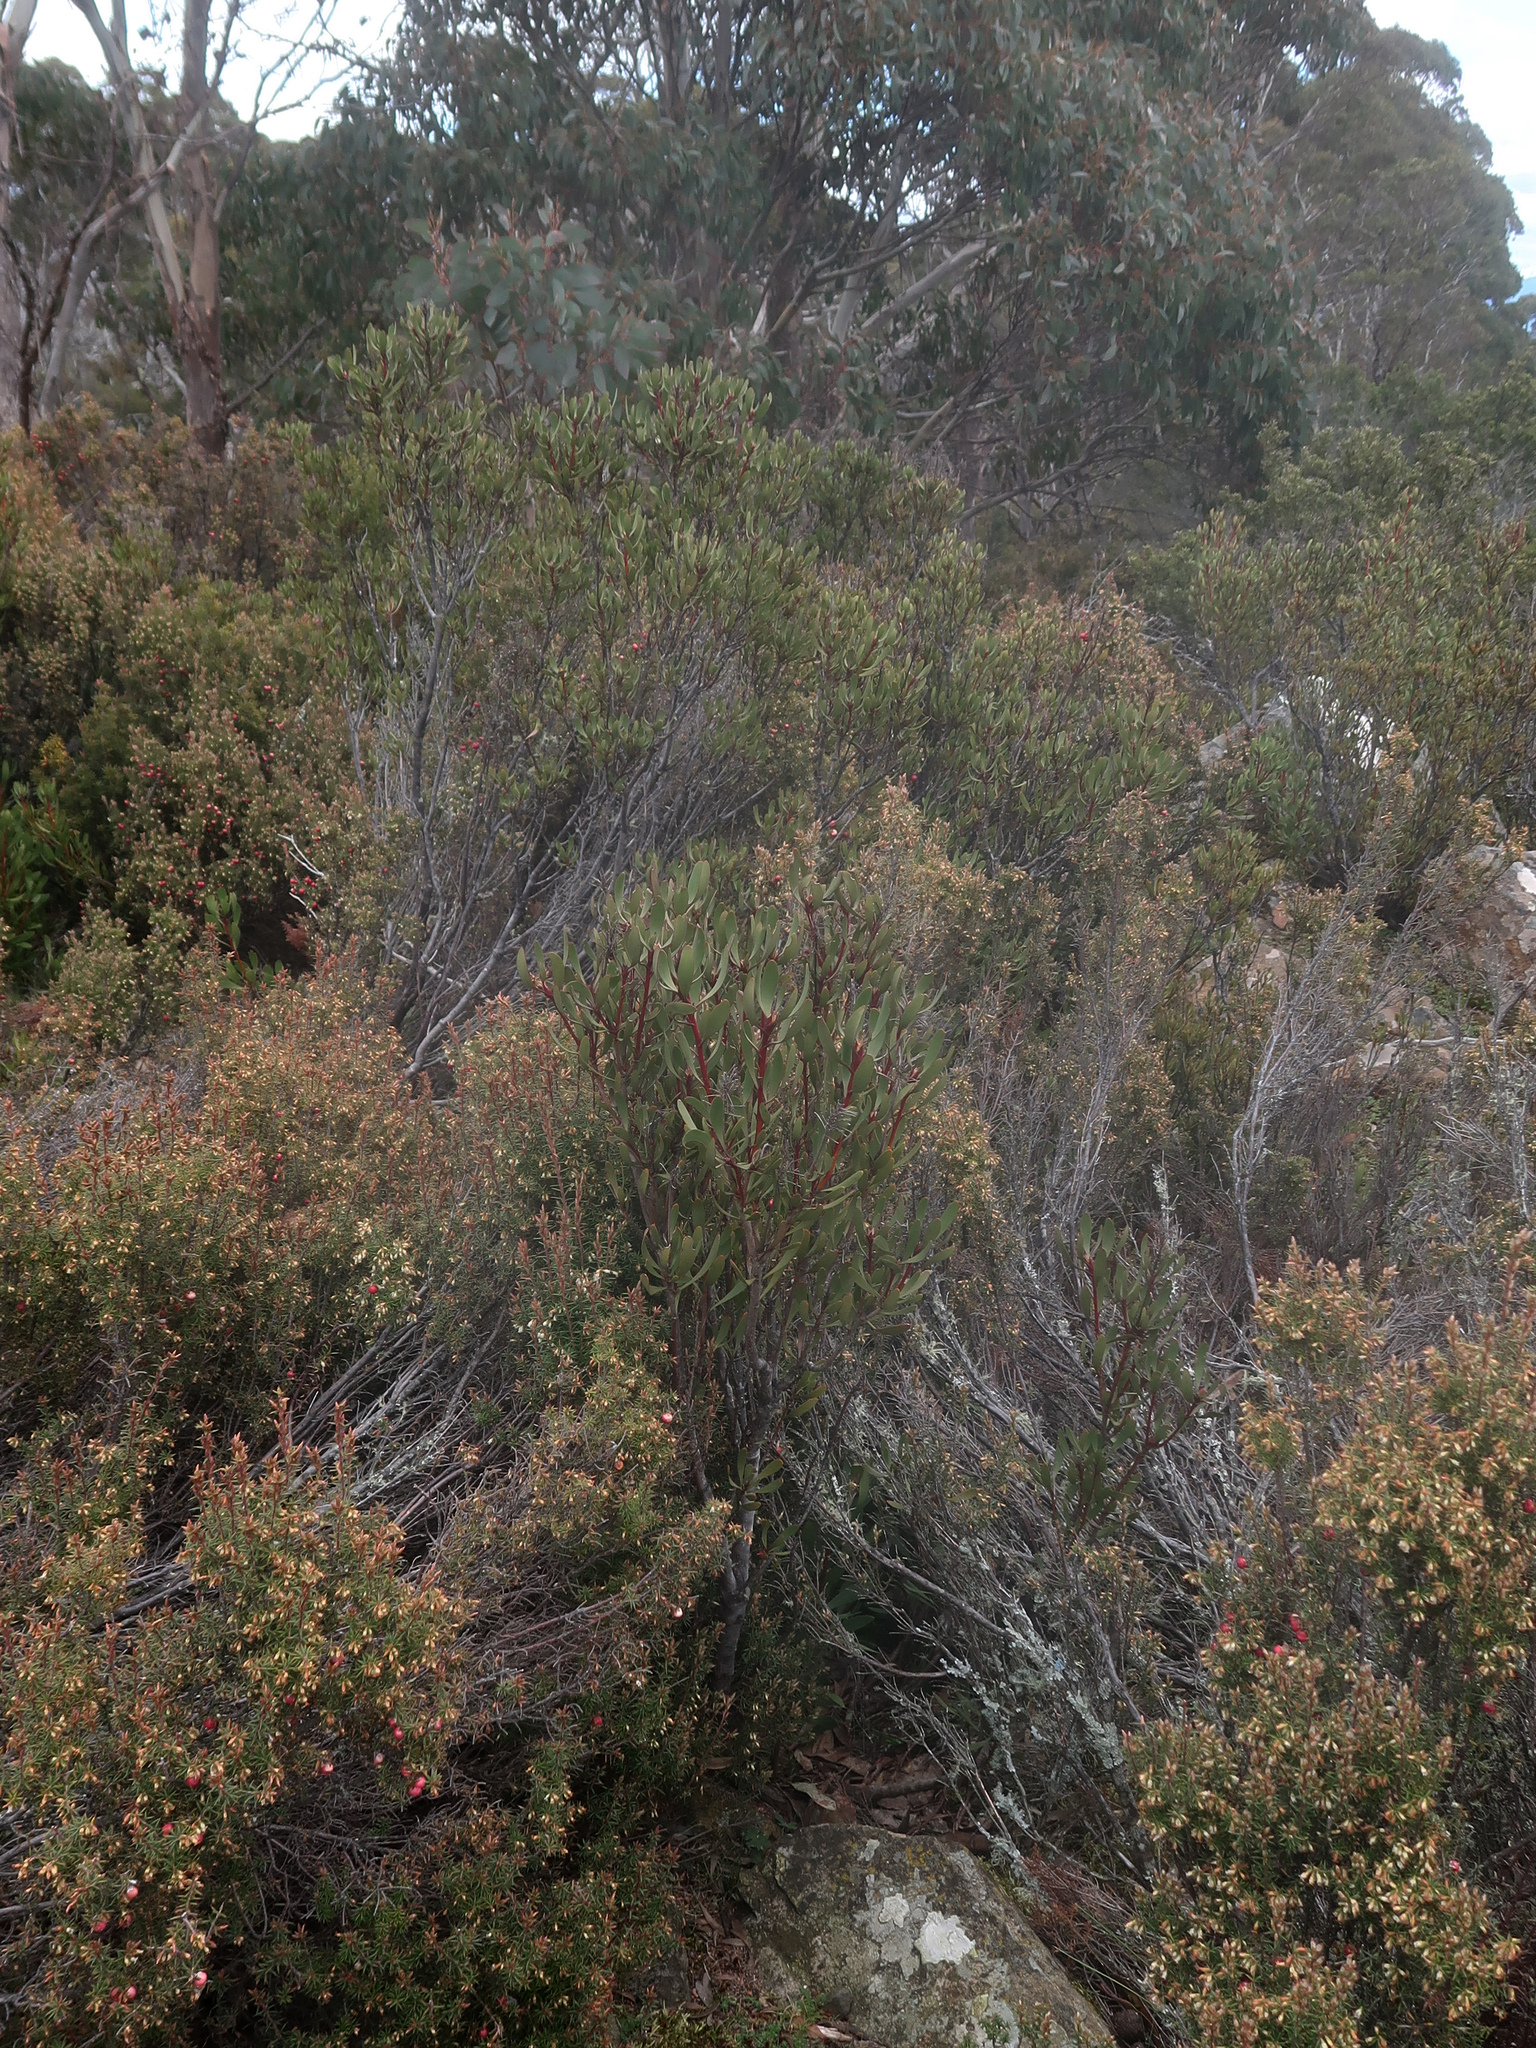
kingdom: Plantae
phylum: Tracheophyta
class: Magnoliopsida
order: Proteales
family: Proteaceae
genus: Bellendena
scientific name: Bellendena montana
